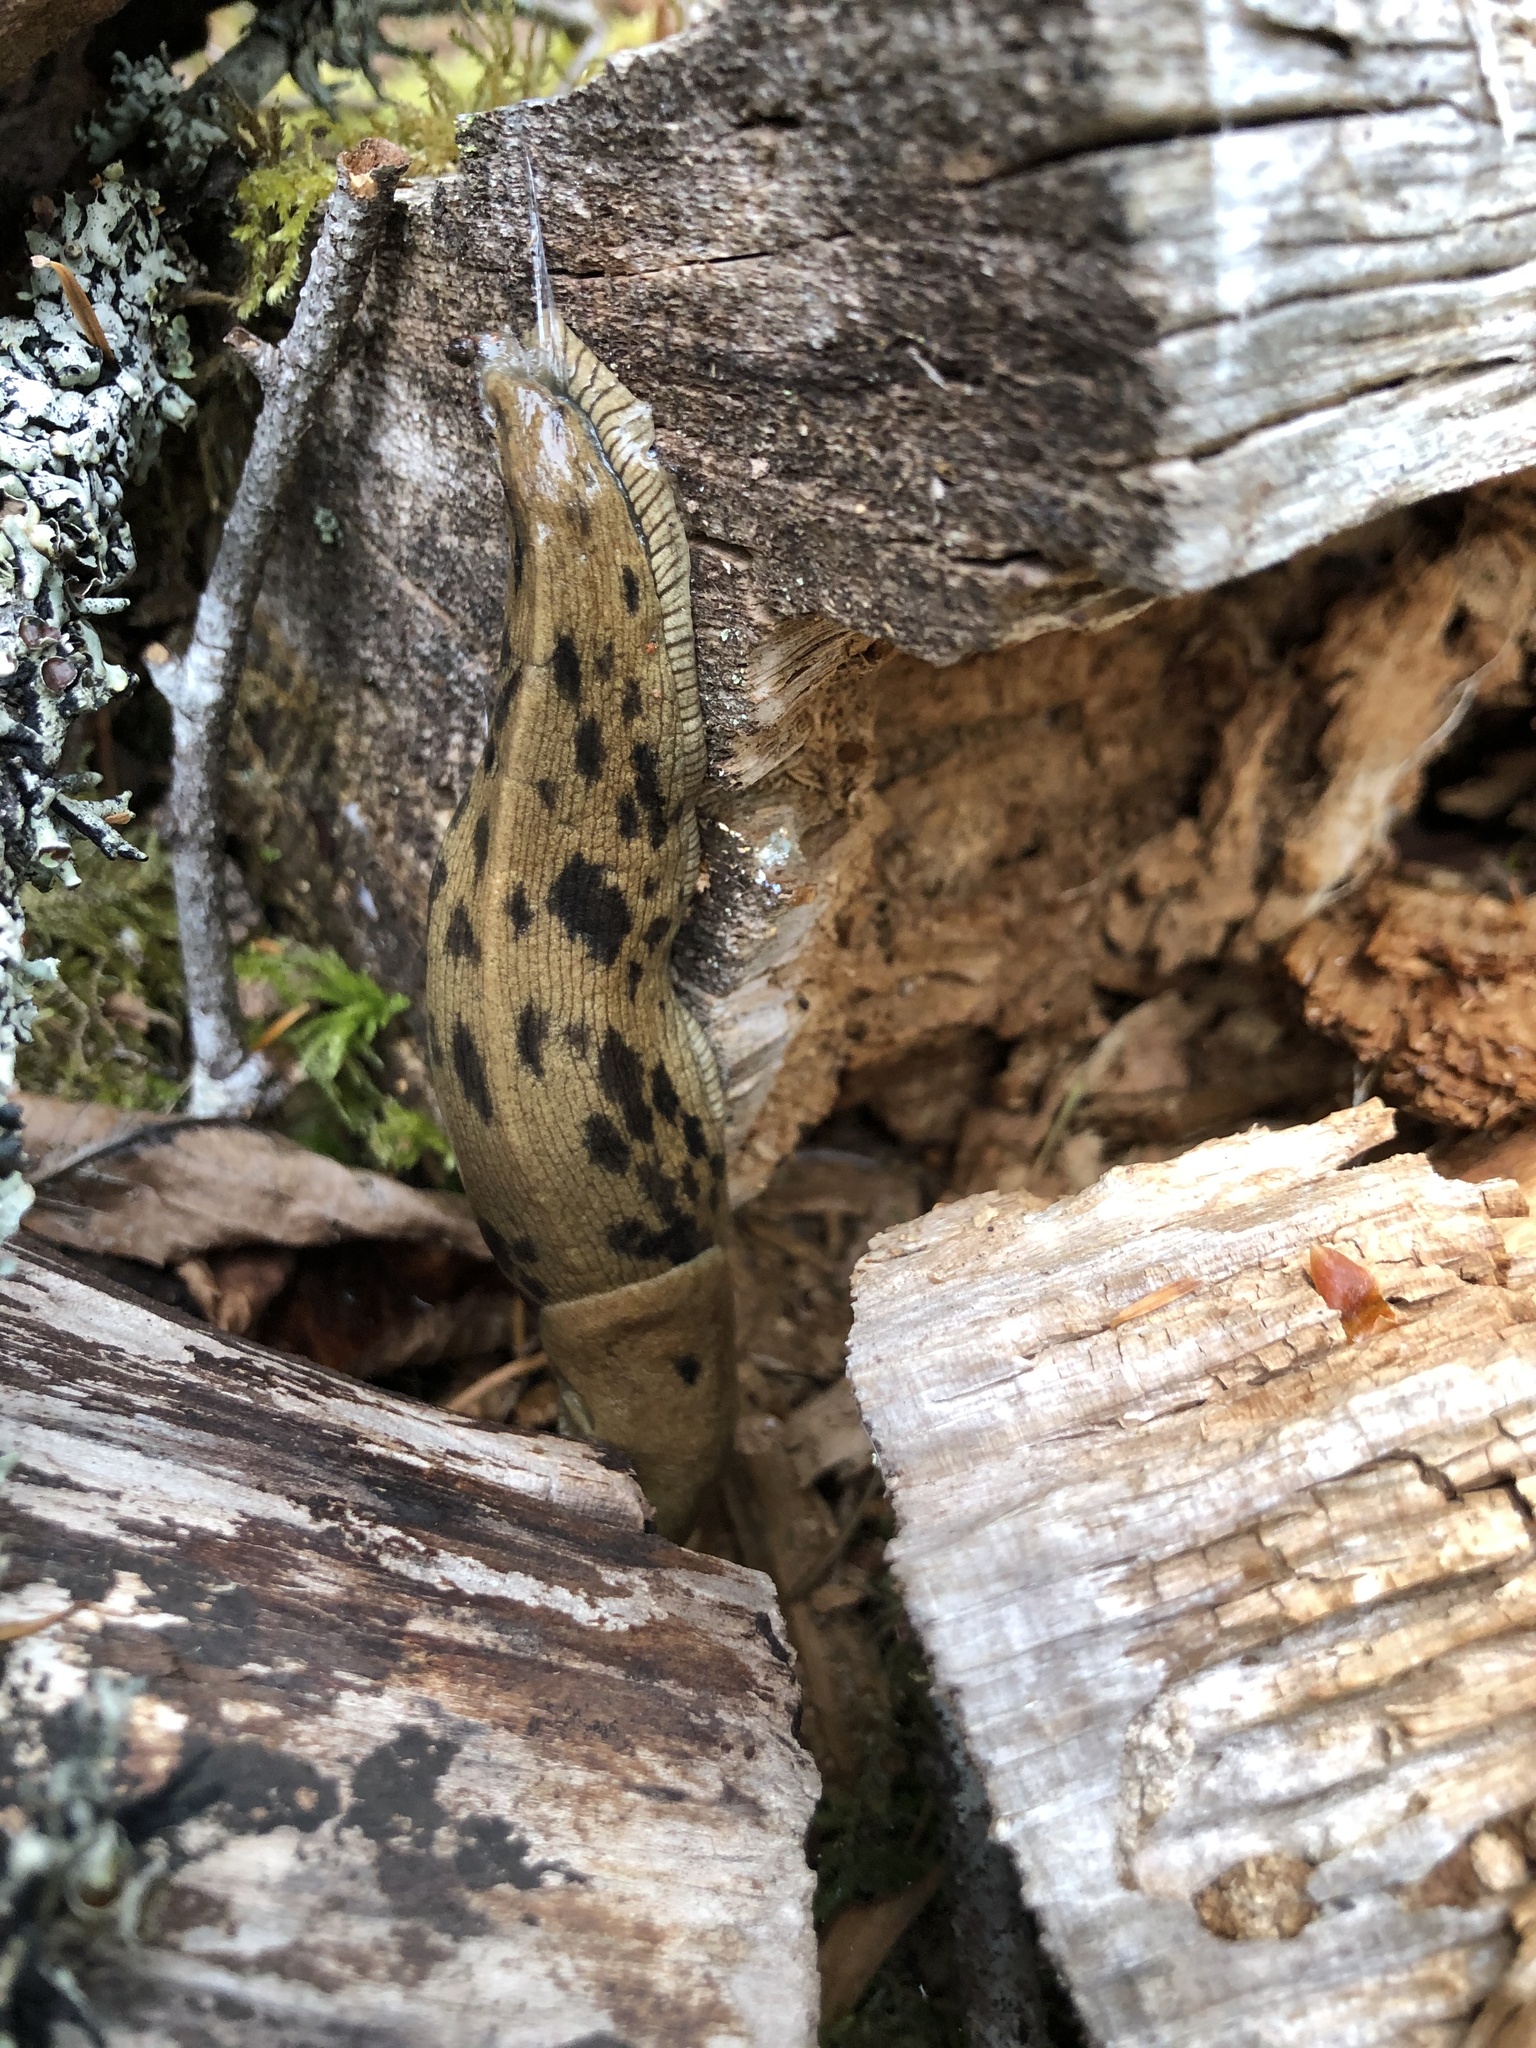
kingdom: Animalia
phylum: Mollusca
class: Gastropoda
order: Stylommatophora
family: Ariolimacidae
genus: Ariolimax
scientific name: Ariolimax columbianus
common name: Pacific banana slug
